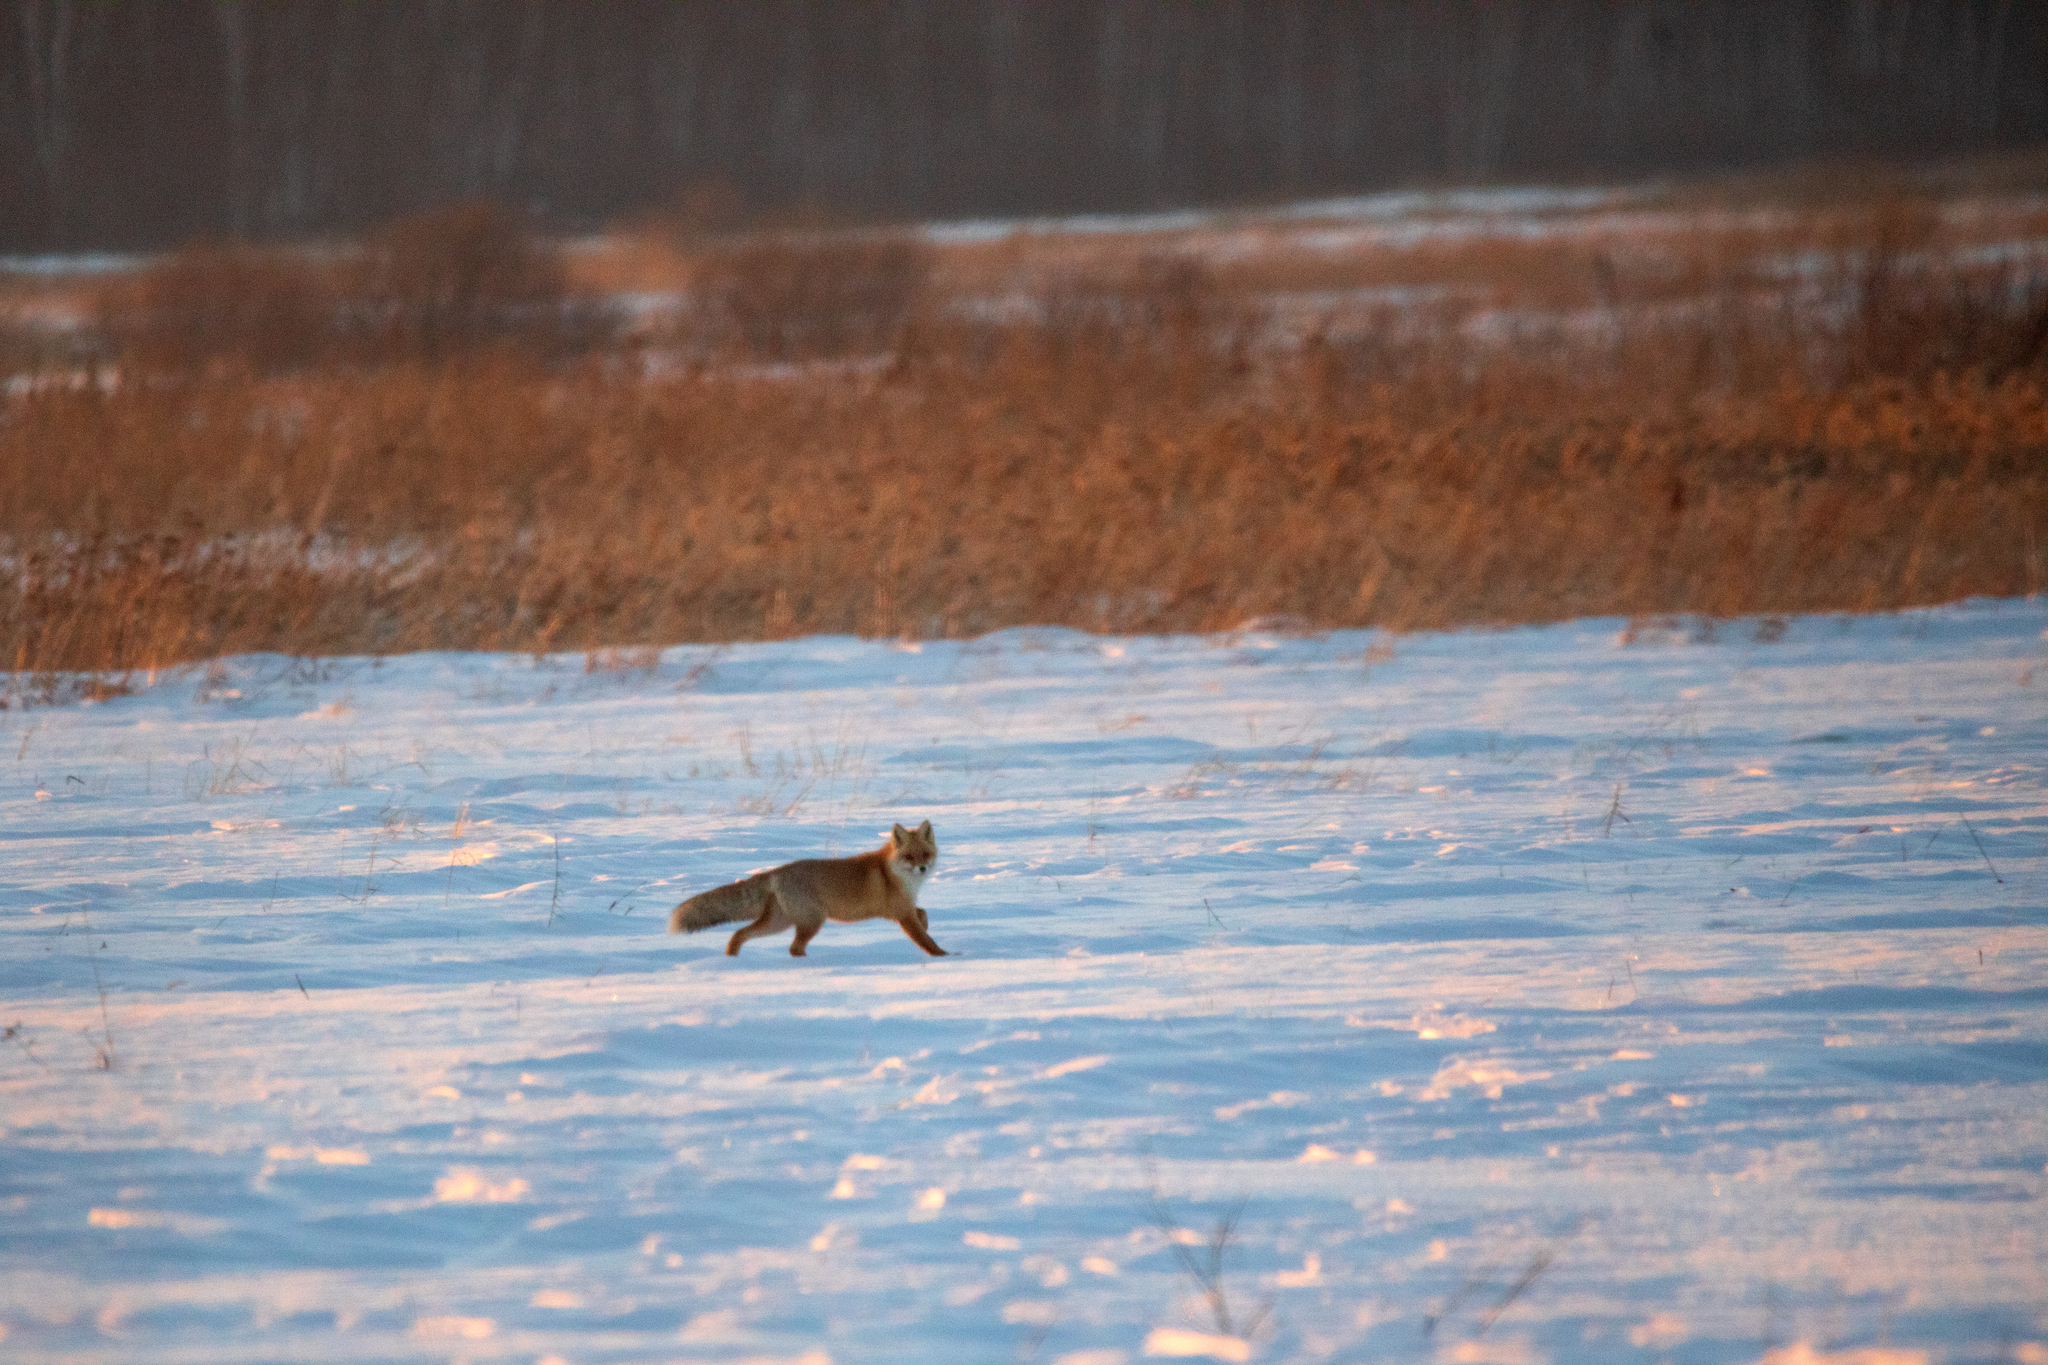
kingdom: Animalia
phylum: Chordata
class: Mammalia
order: Carnivora
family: Canidae
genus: Vulpes
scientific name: Vulpes vulpes
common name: Red fox
